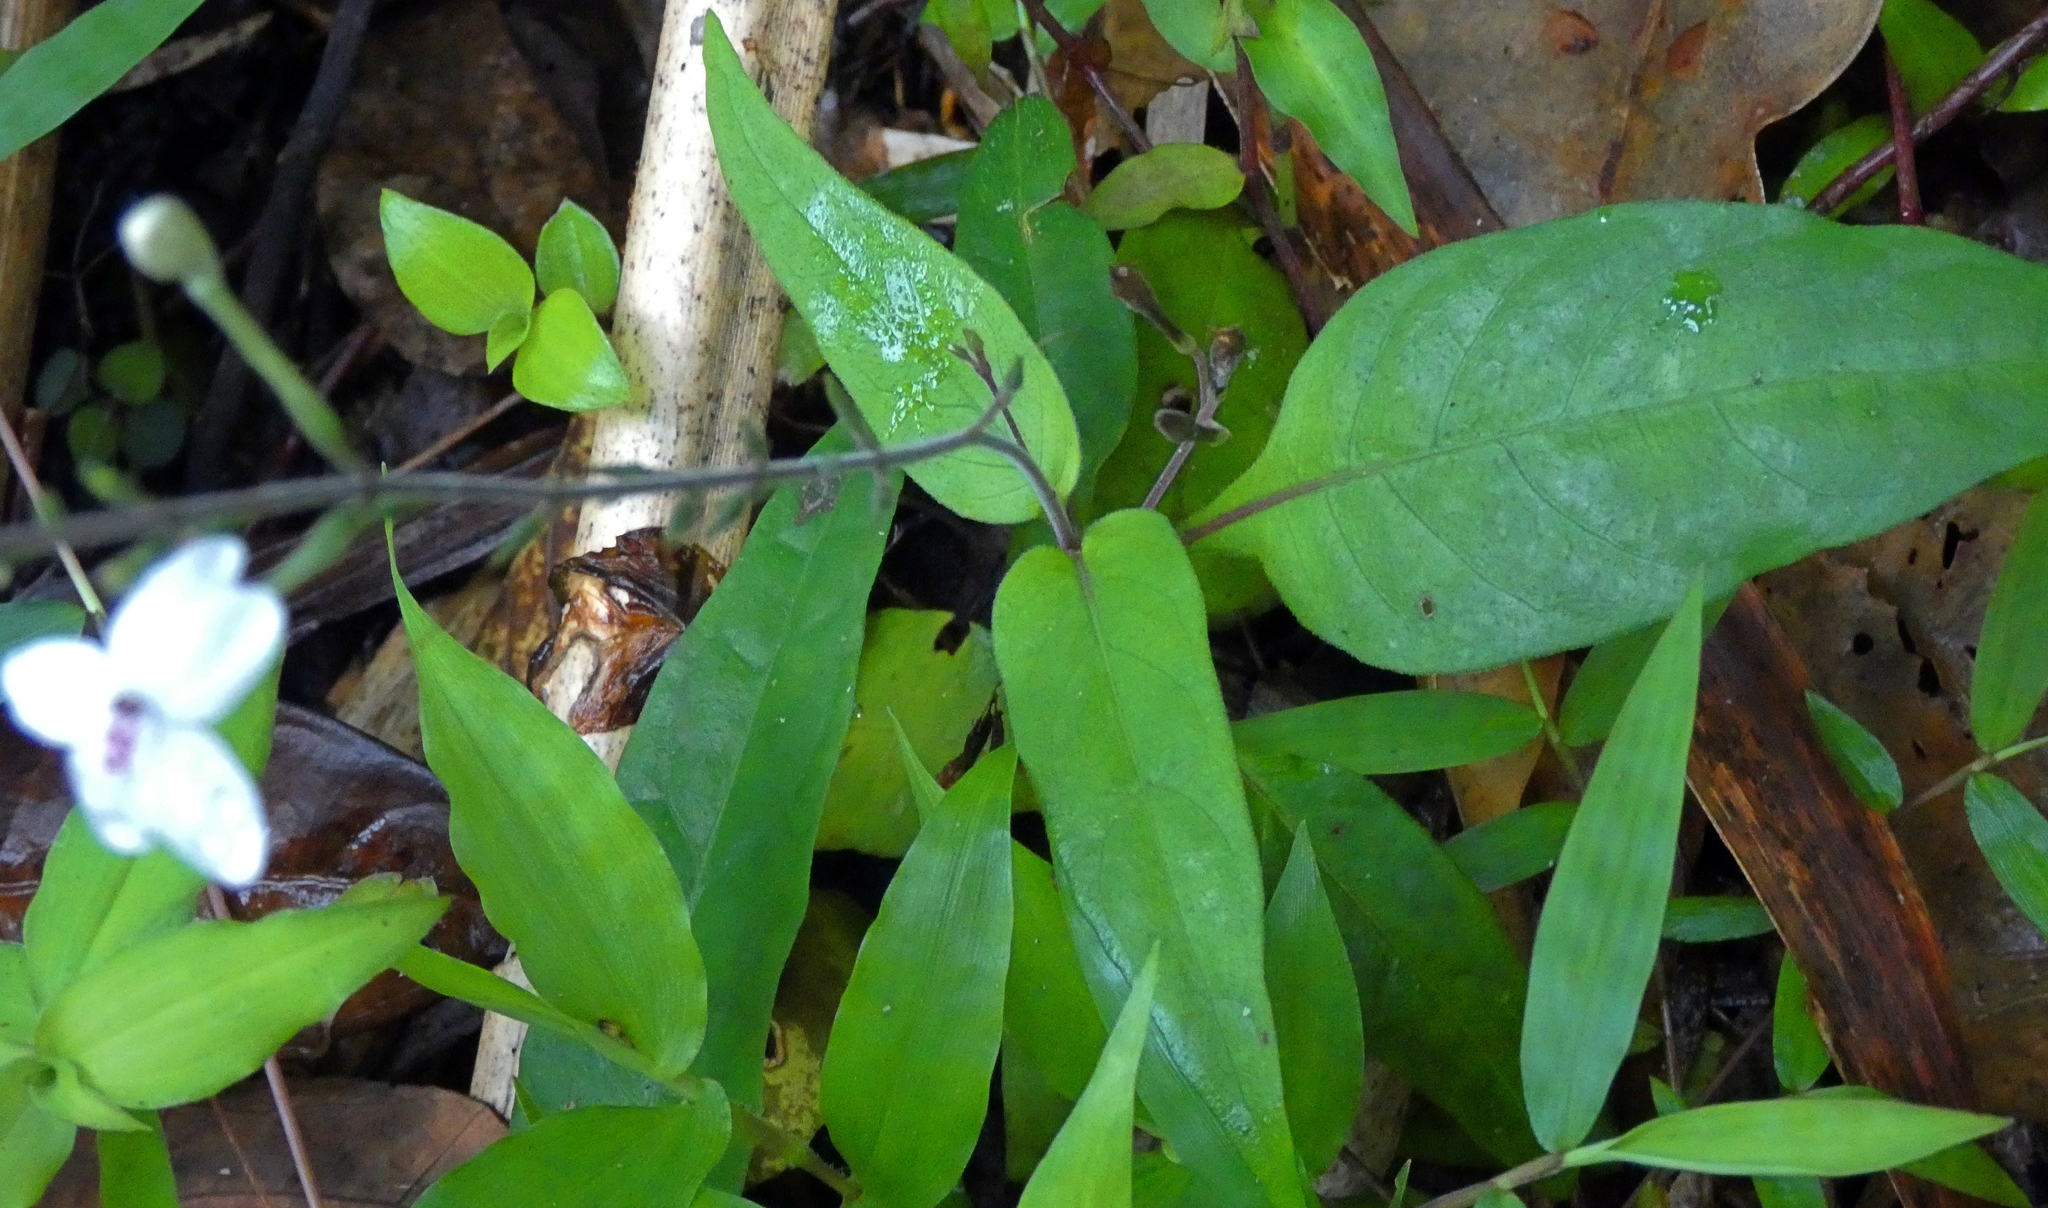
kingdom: Plantae
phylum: Tracheophyta
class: Magnoliopsida
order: Lamiales
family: Acanthaceae
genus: Pseuderanthemum
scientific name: Pseuderanthemum variabile
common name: Night and afternoon
